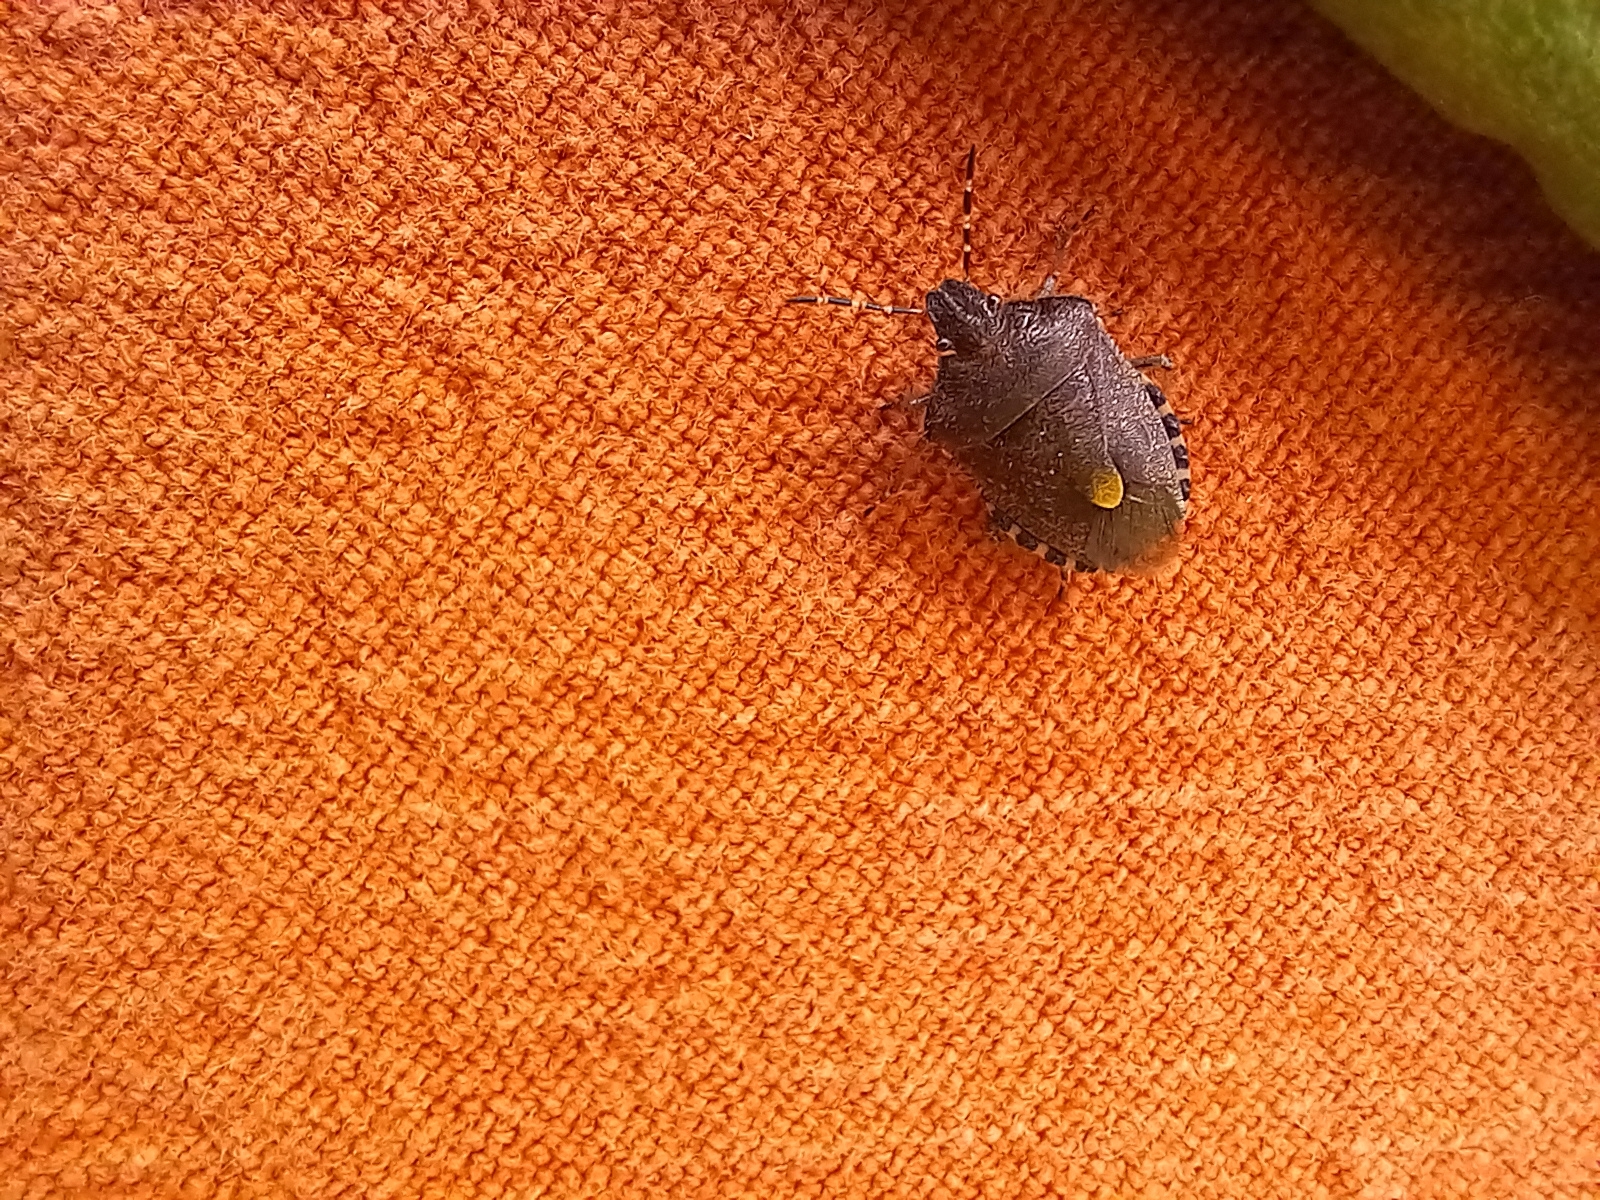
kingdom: Animalia
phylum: Arthropoda
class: Insecta
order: Hemiptera
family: Pentatomidae
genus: Dolycoris
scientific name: Dolycoris baccarum
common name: Sloe bug
